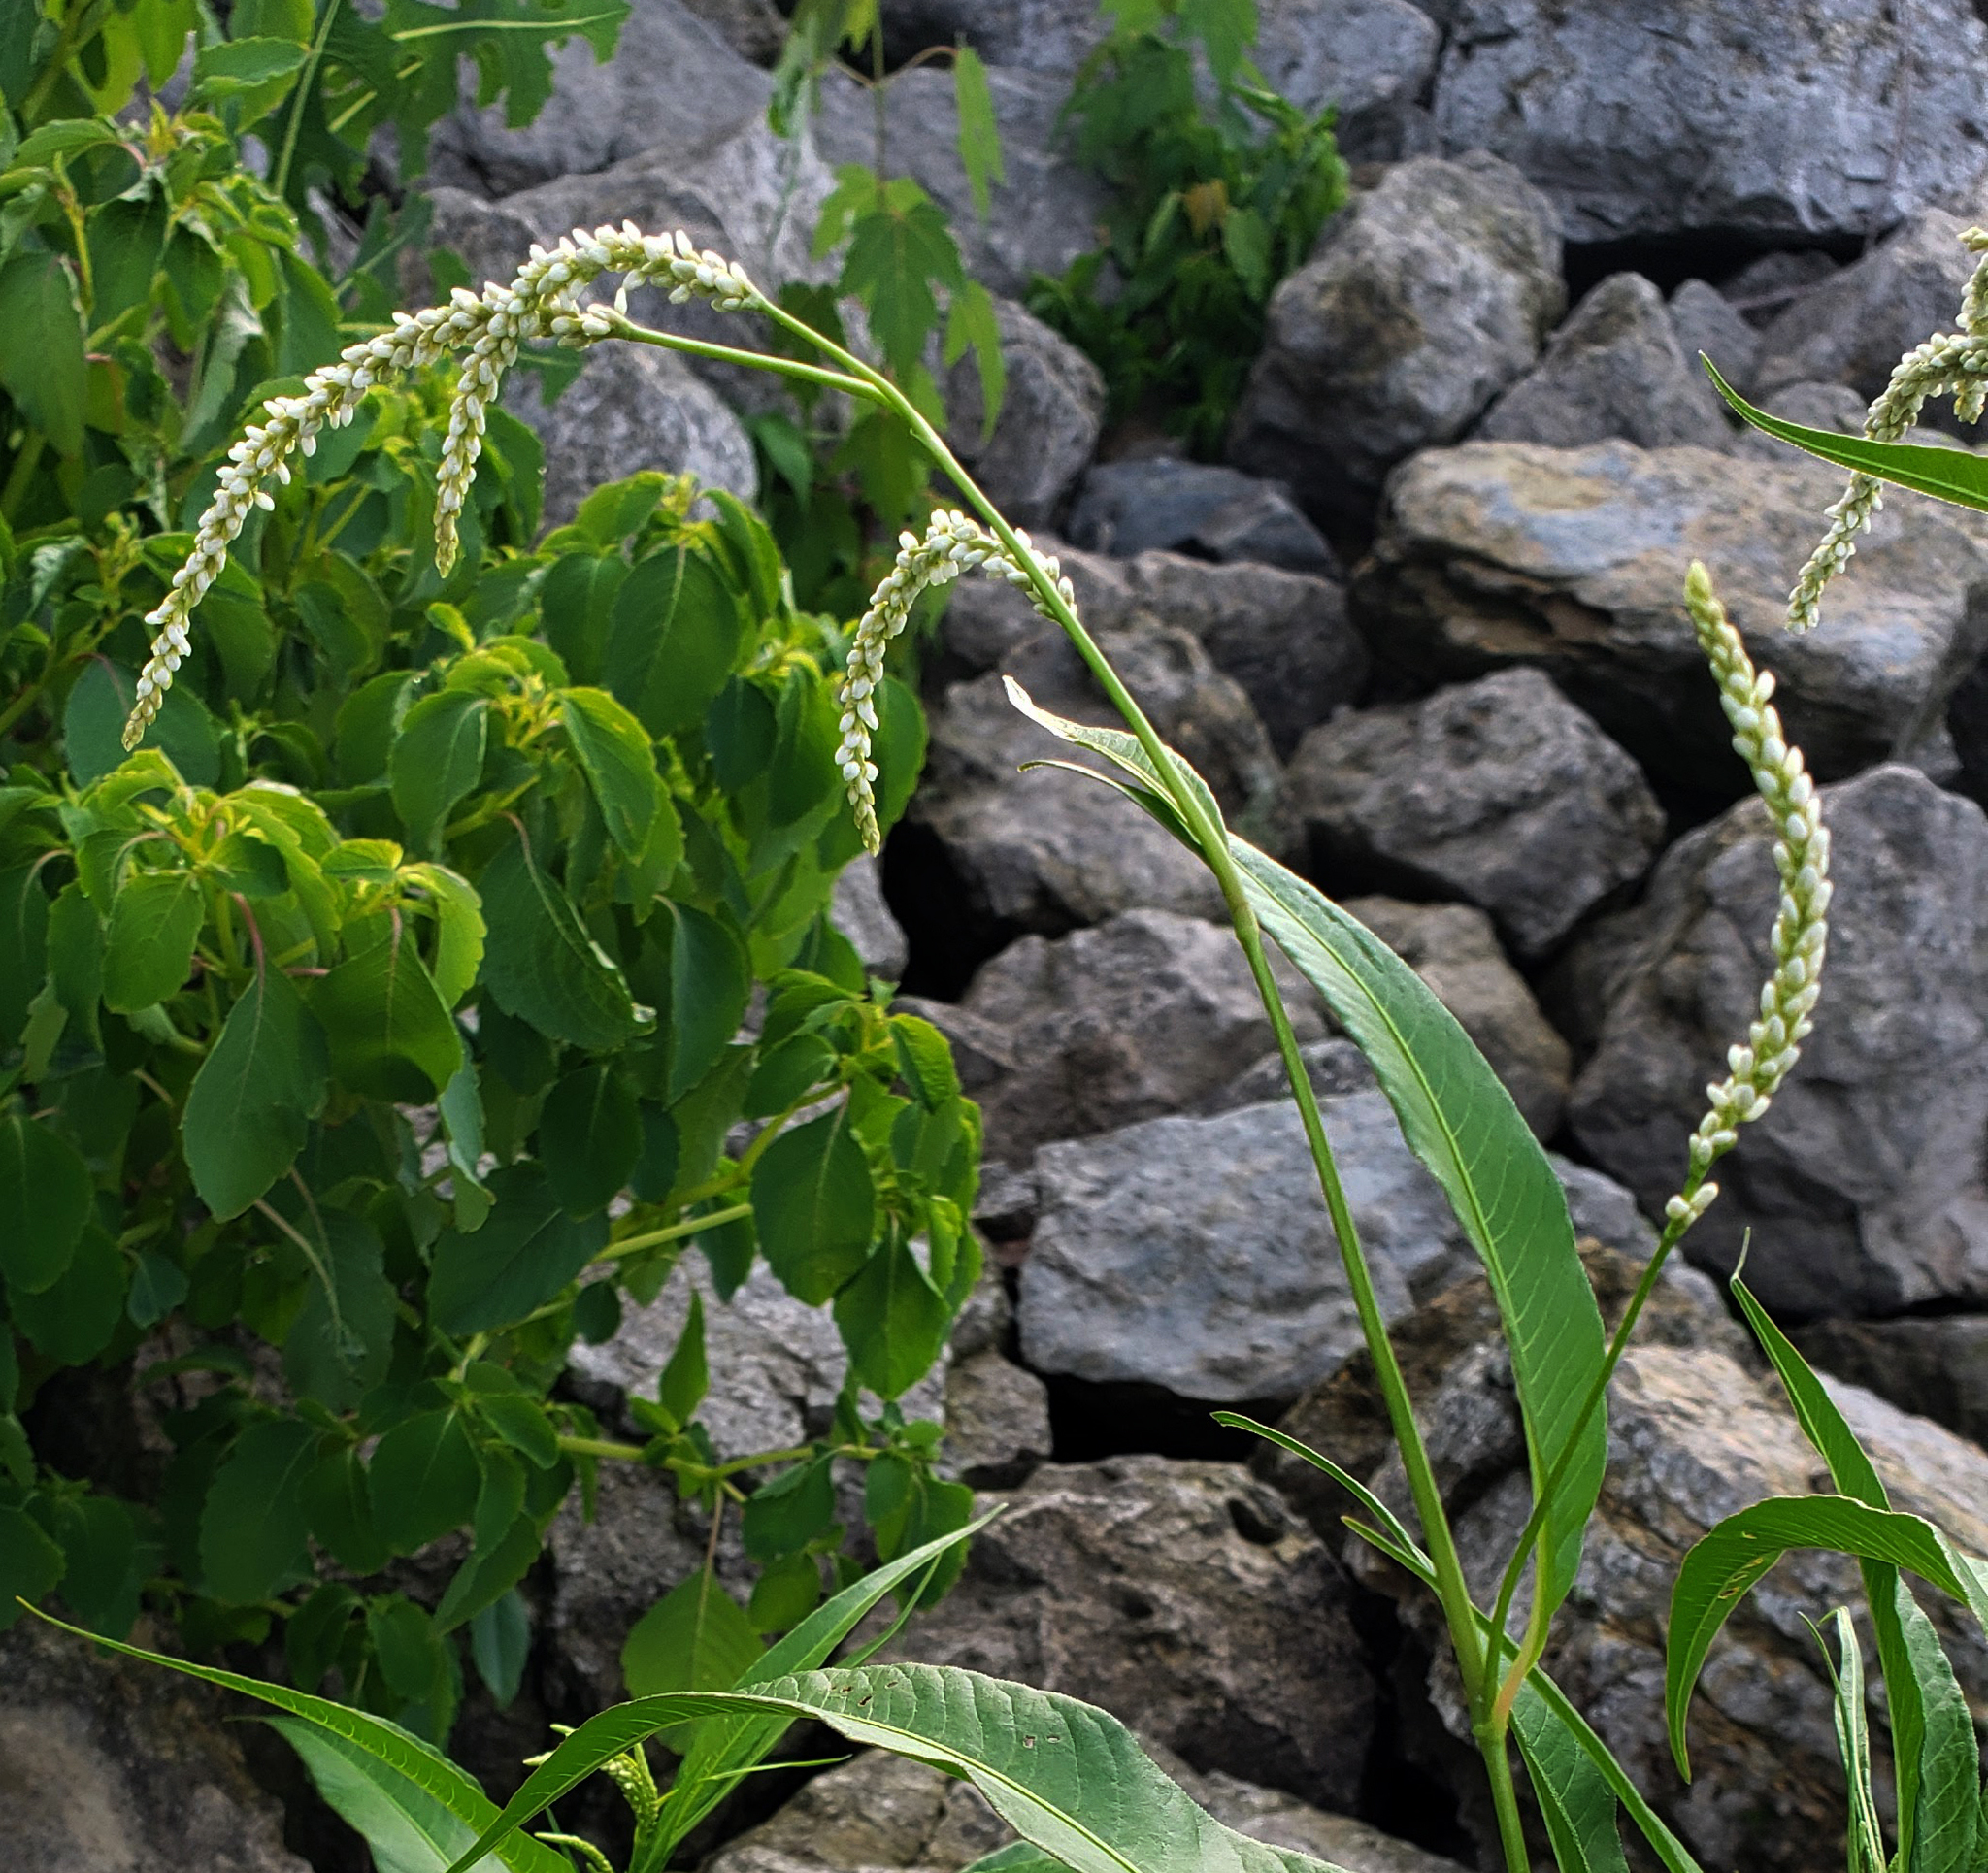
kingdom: Plantae
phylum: Tracheophyta
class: Magnoliopsida
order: Caryophyllales
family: Polygonaceae
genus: Persicaria
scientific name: Persicaria lapathifolia
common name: Curlytop knotweed
